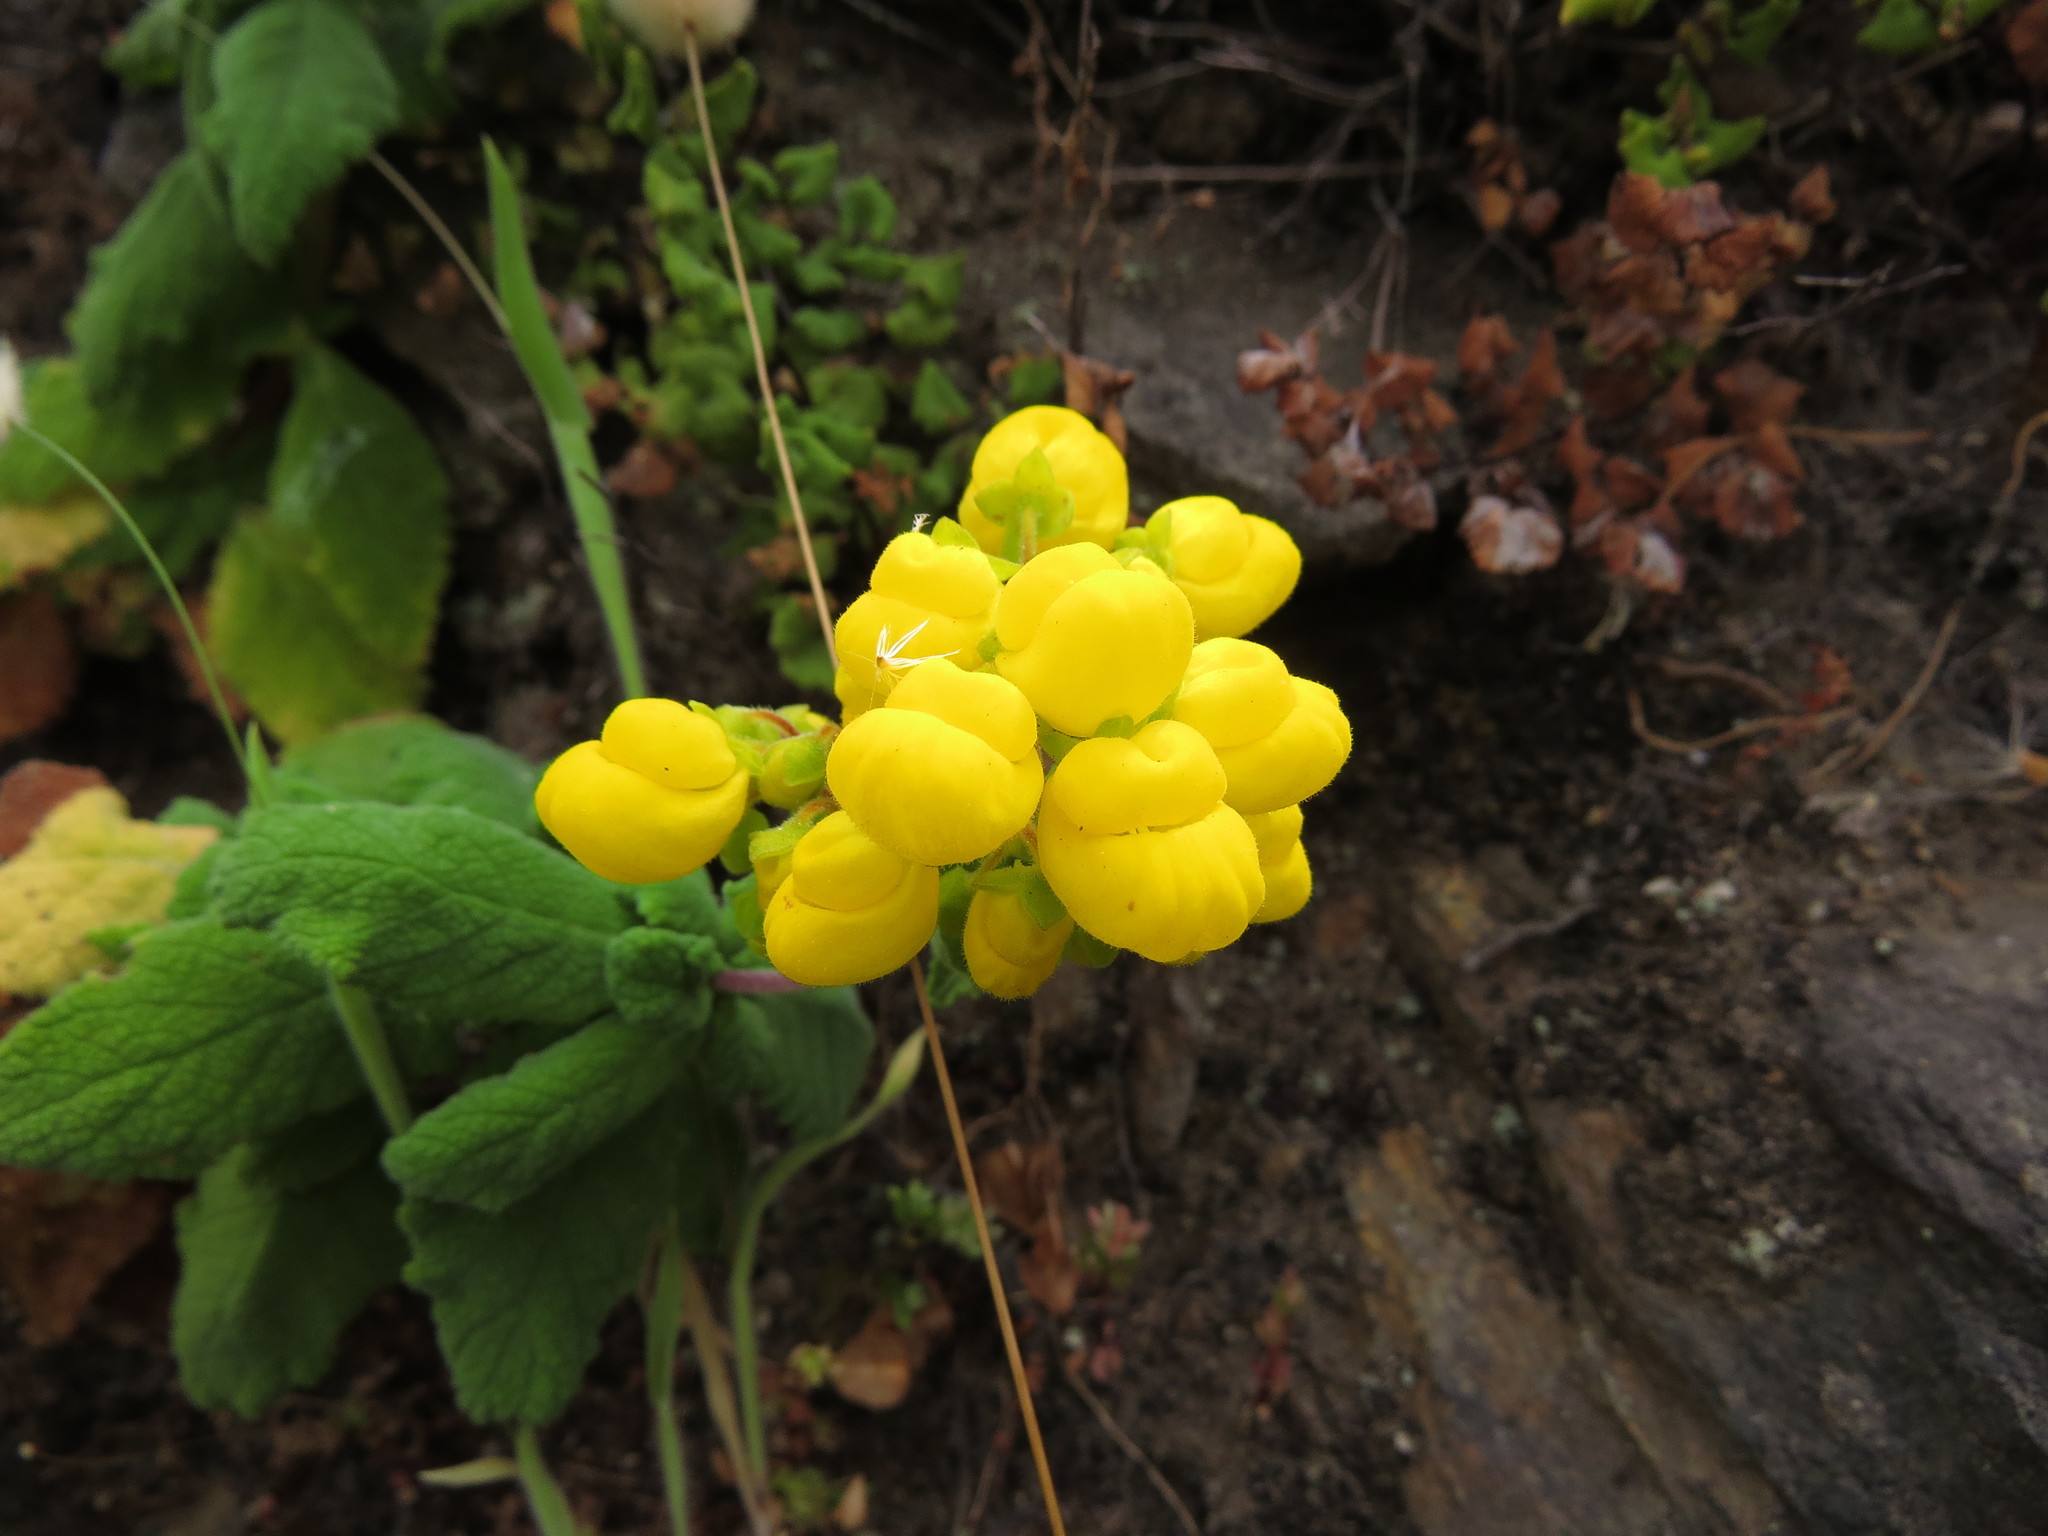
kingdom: Plantae
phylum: Tracheophyta
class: Magnoliopsida
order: Lamiales
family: Calceolariaceae
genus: Calceolaria
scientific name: Calceolaria viscosissima
